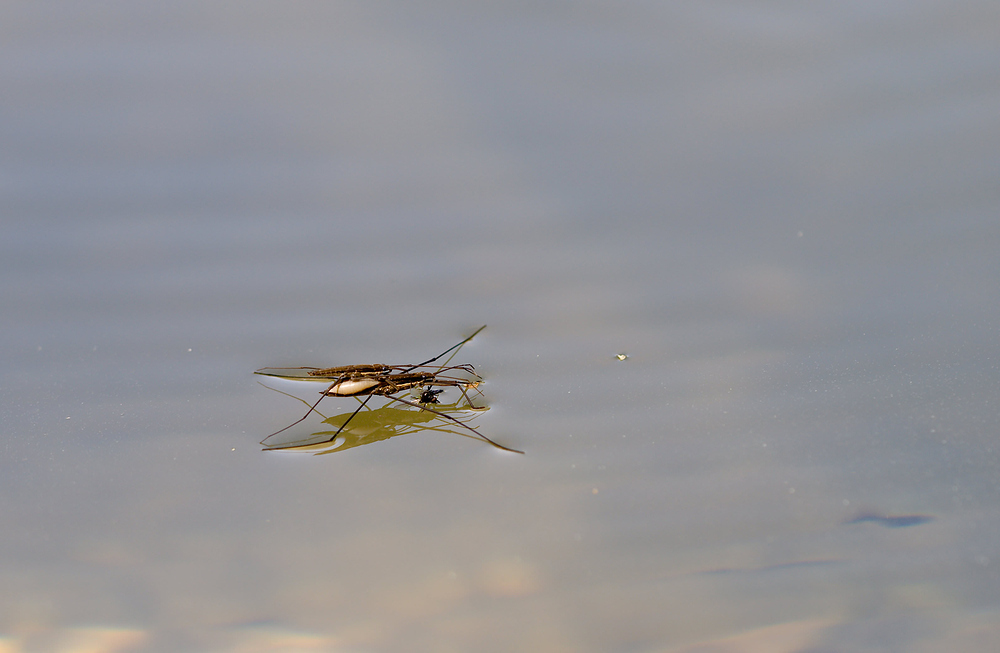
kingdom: Animalia
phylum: Arthropoda
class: Insecta
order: Hemiptera
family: Gerridae
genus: Aquarius
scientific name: Aquarius najas
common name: River skater
